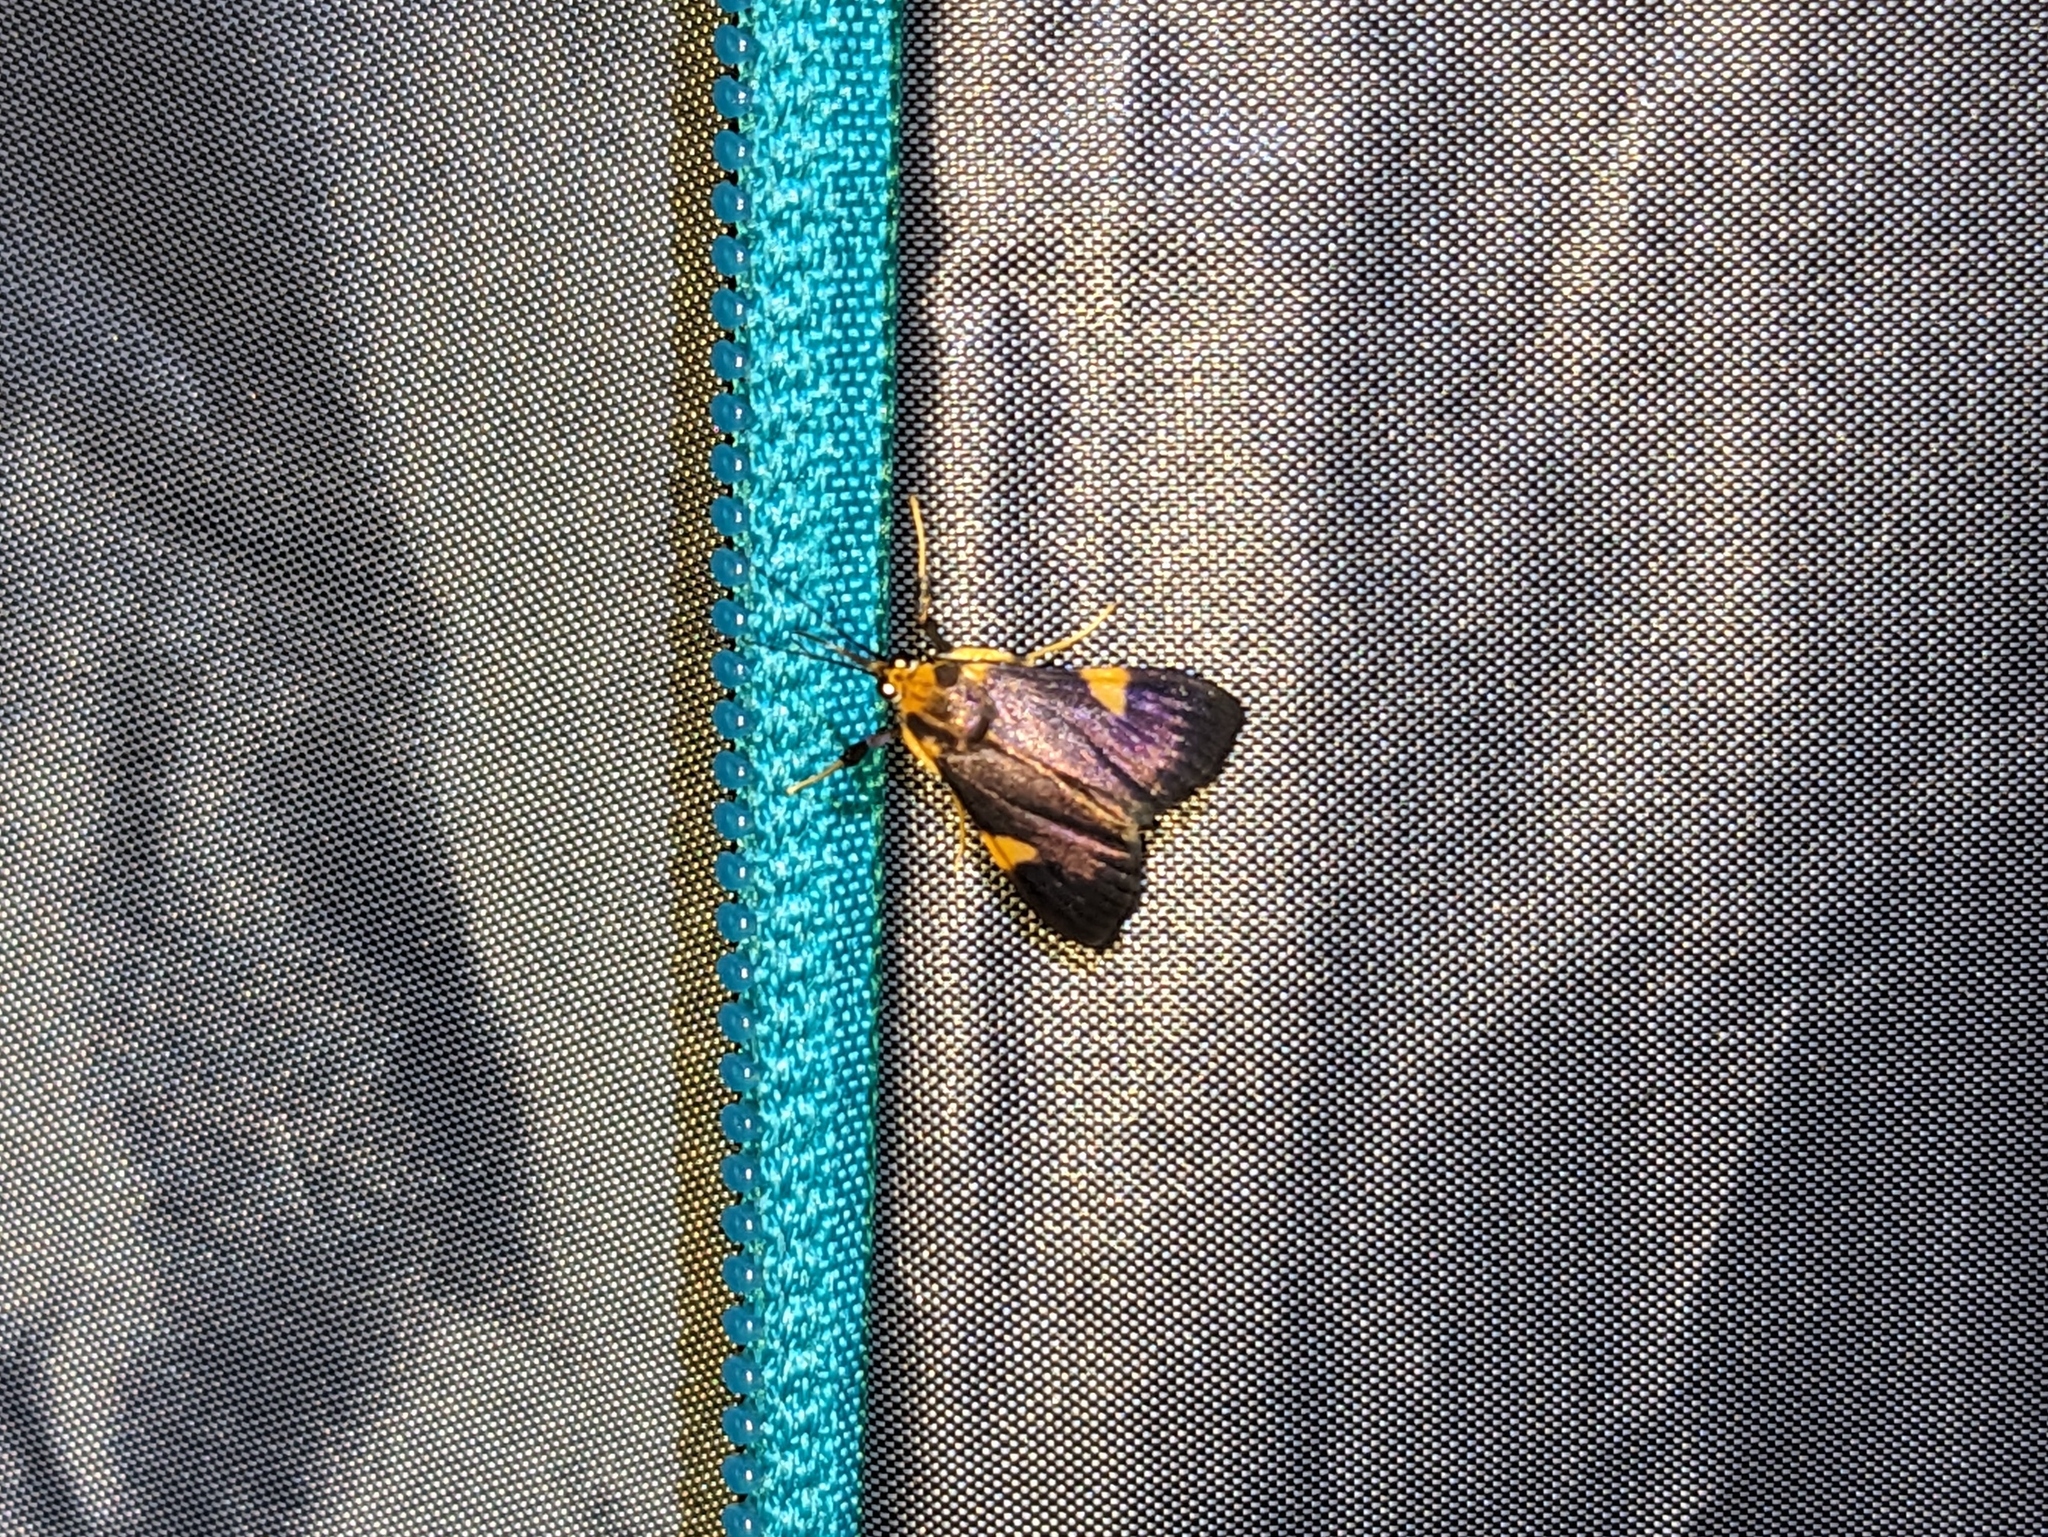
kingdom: Animalia
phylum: Arthropoda
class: Insecta
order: Lepidoptera
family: Crambidae
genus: Ulopeza
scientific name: Ulopeza conigeralis
